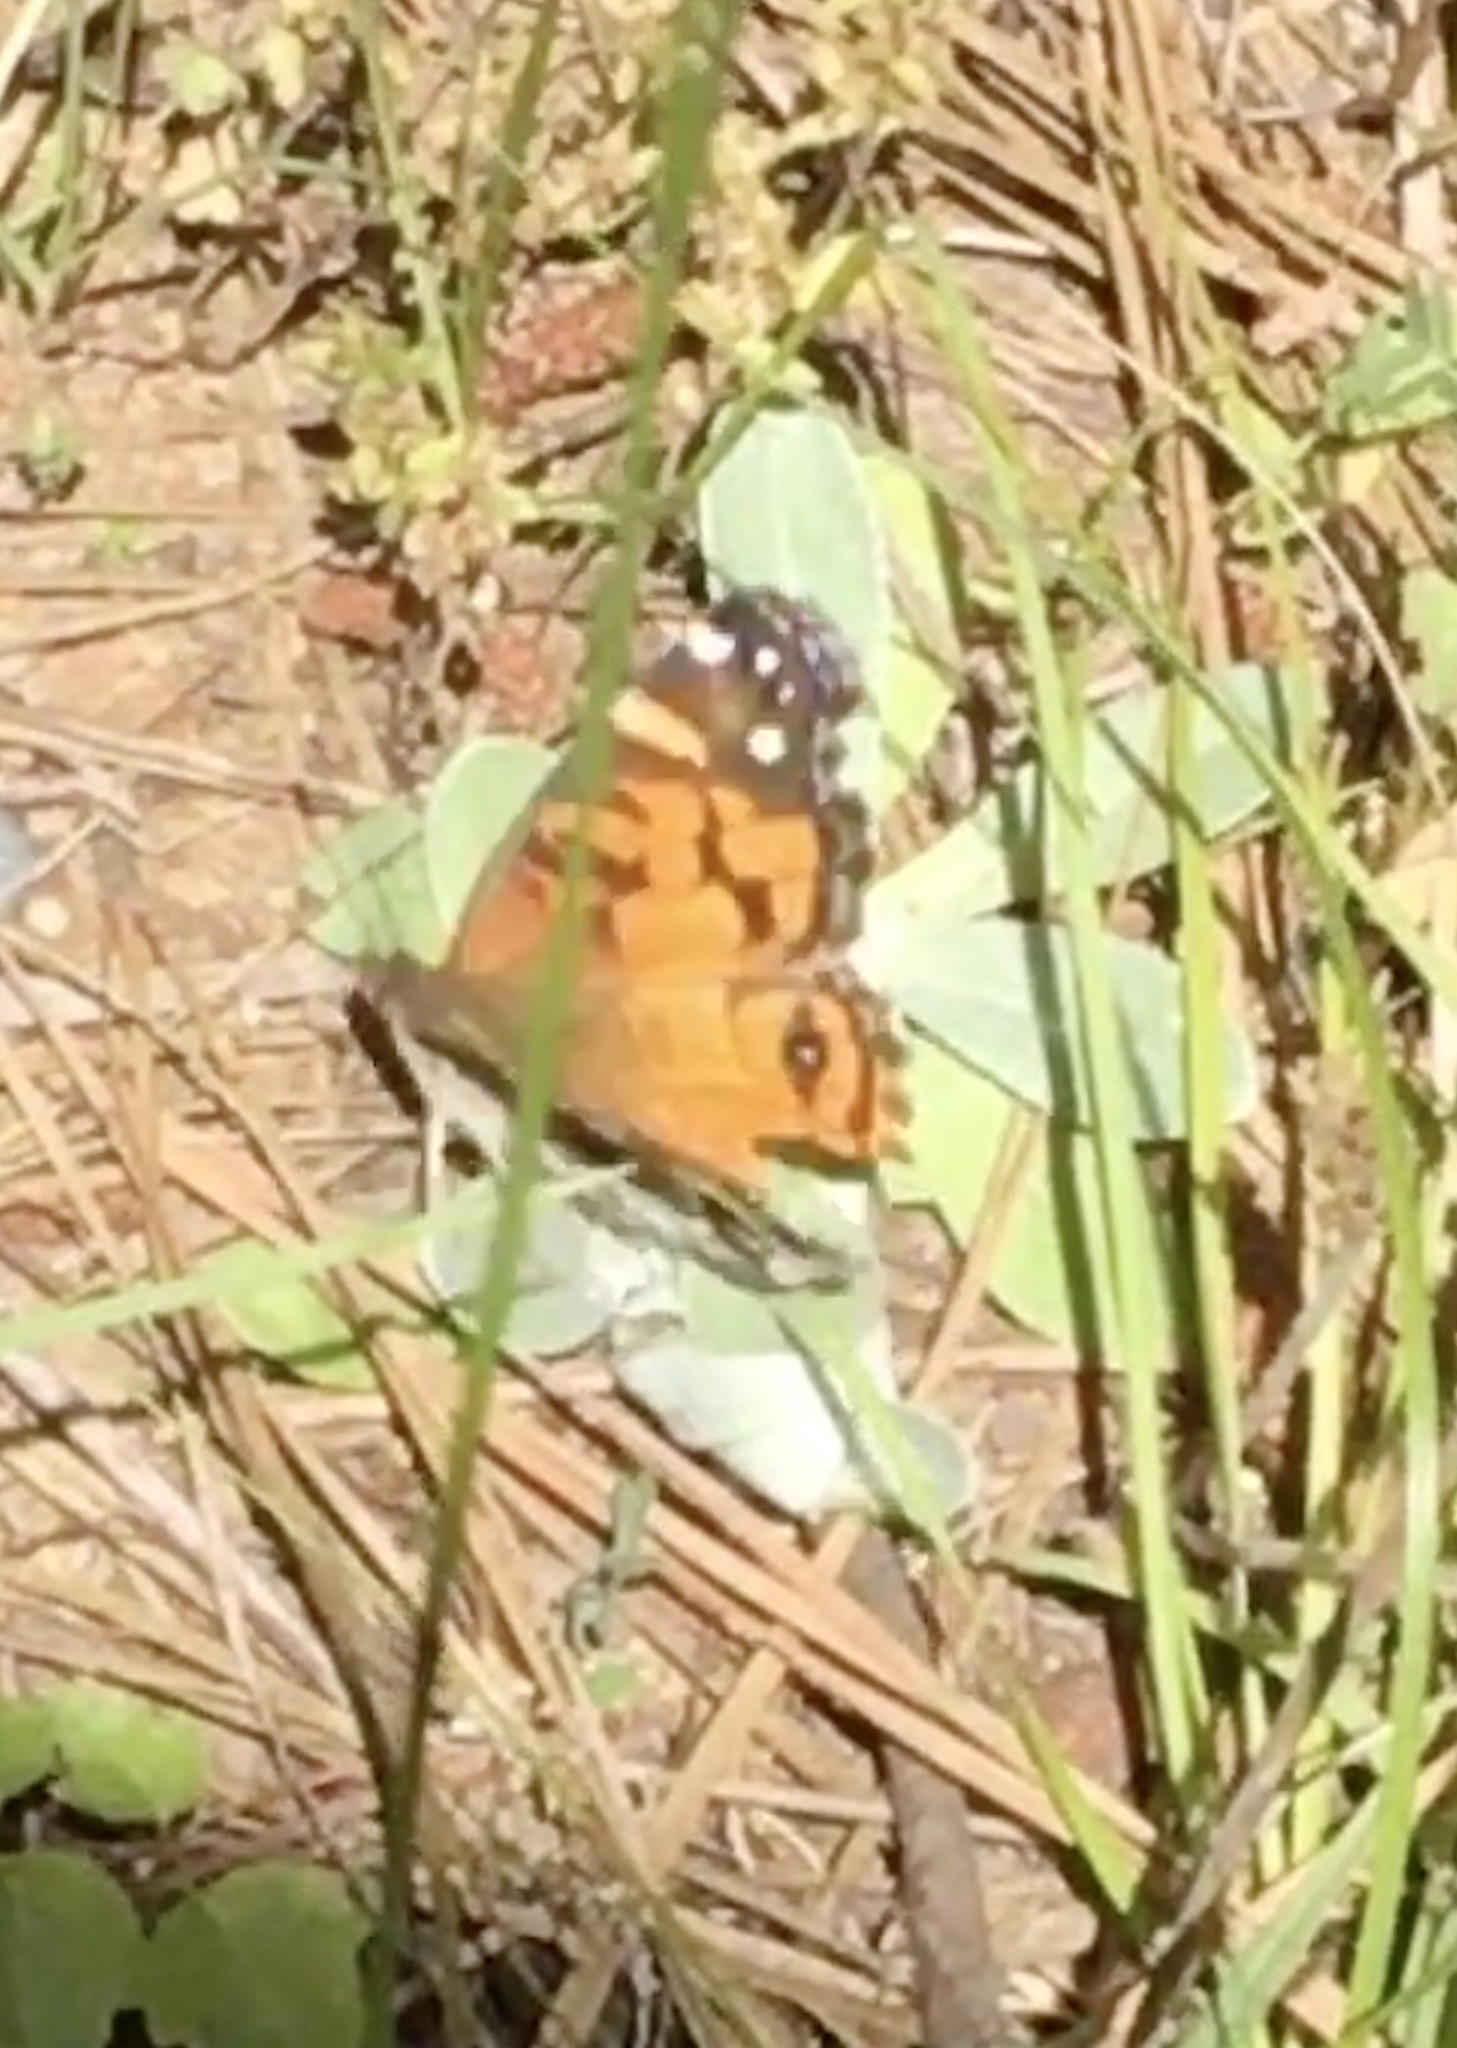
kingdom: Animalia
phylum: Arthropoda
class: Insecta
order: Lepidoptera
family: Nymphalidae
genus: Vanessa
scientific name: Vanessa virginiensis
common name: American lady
